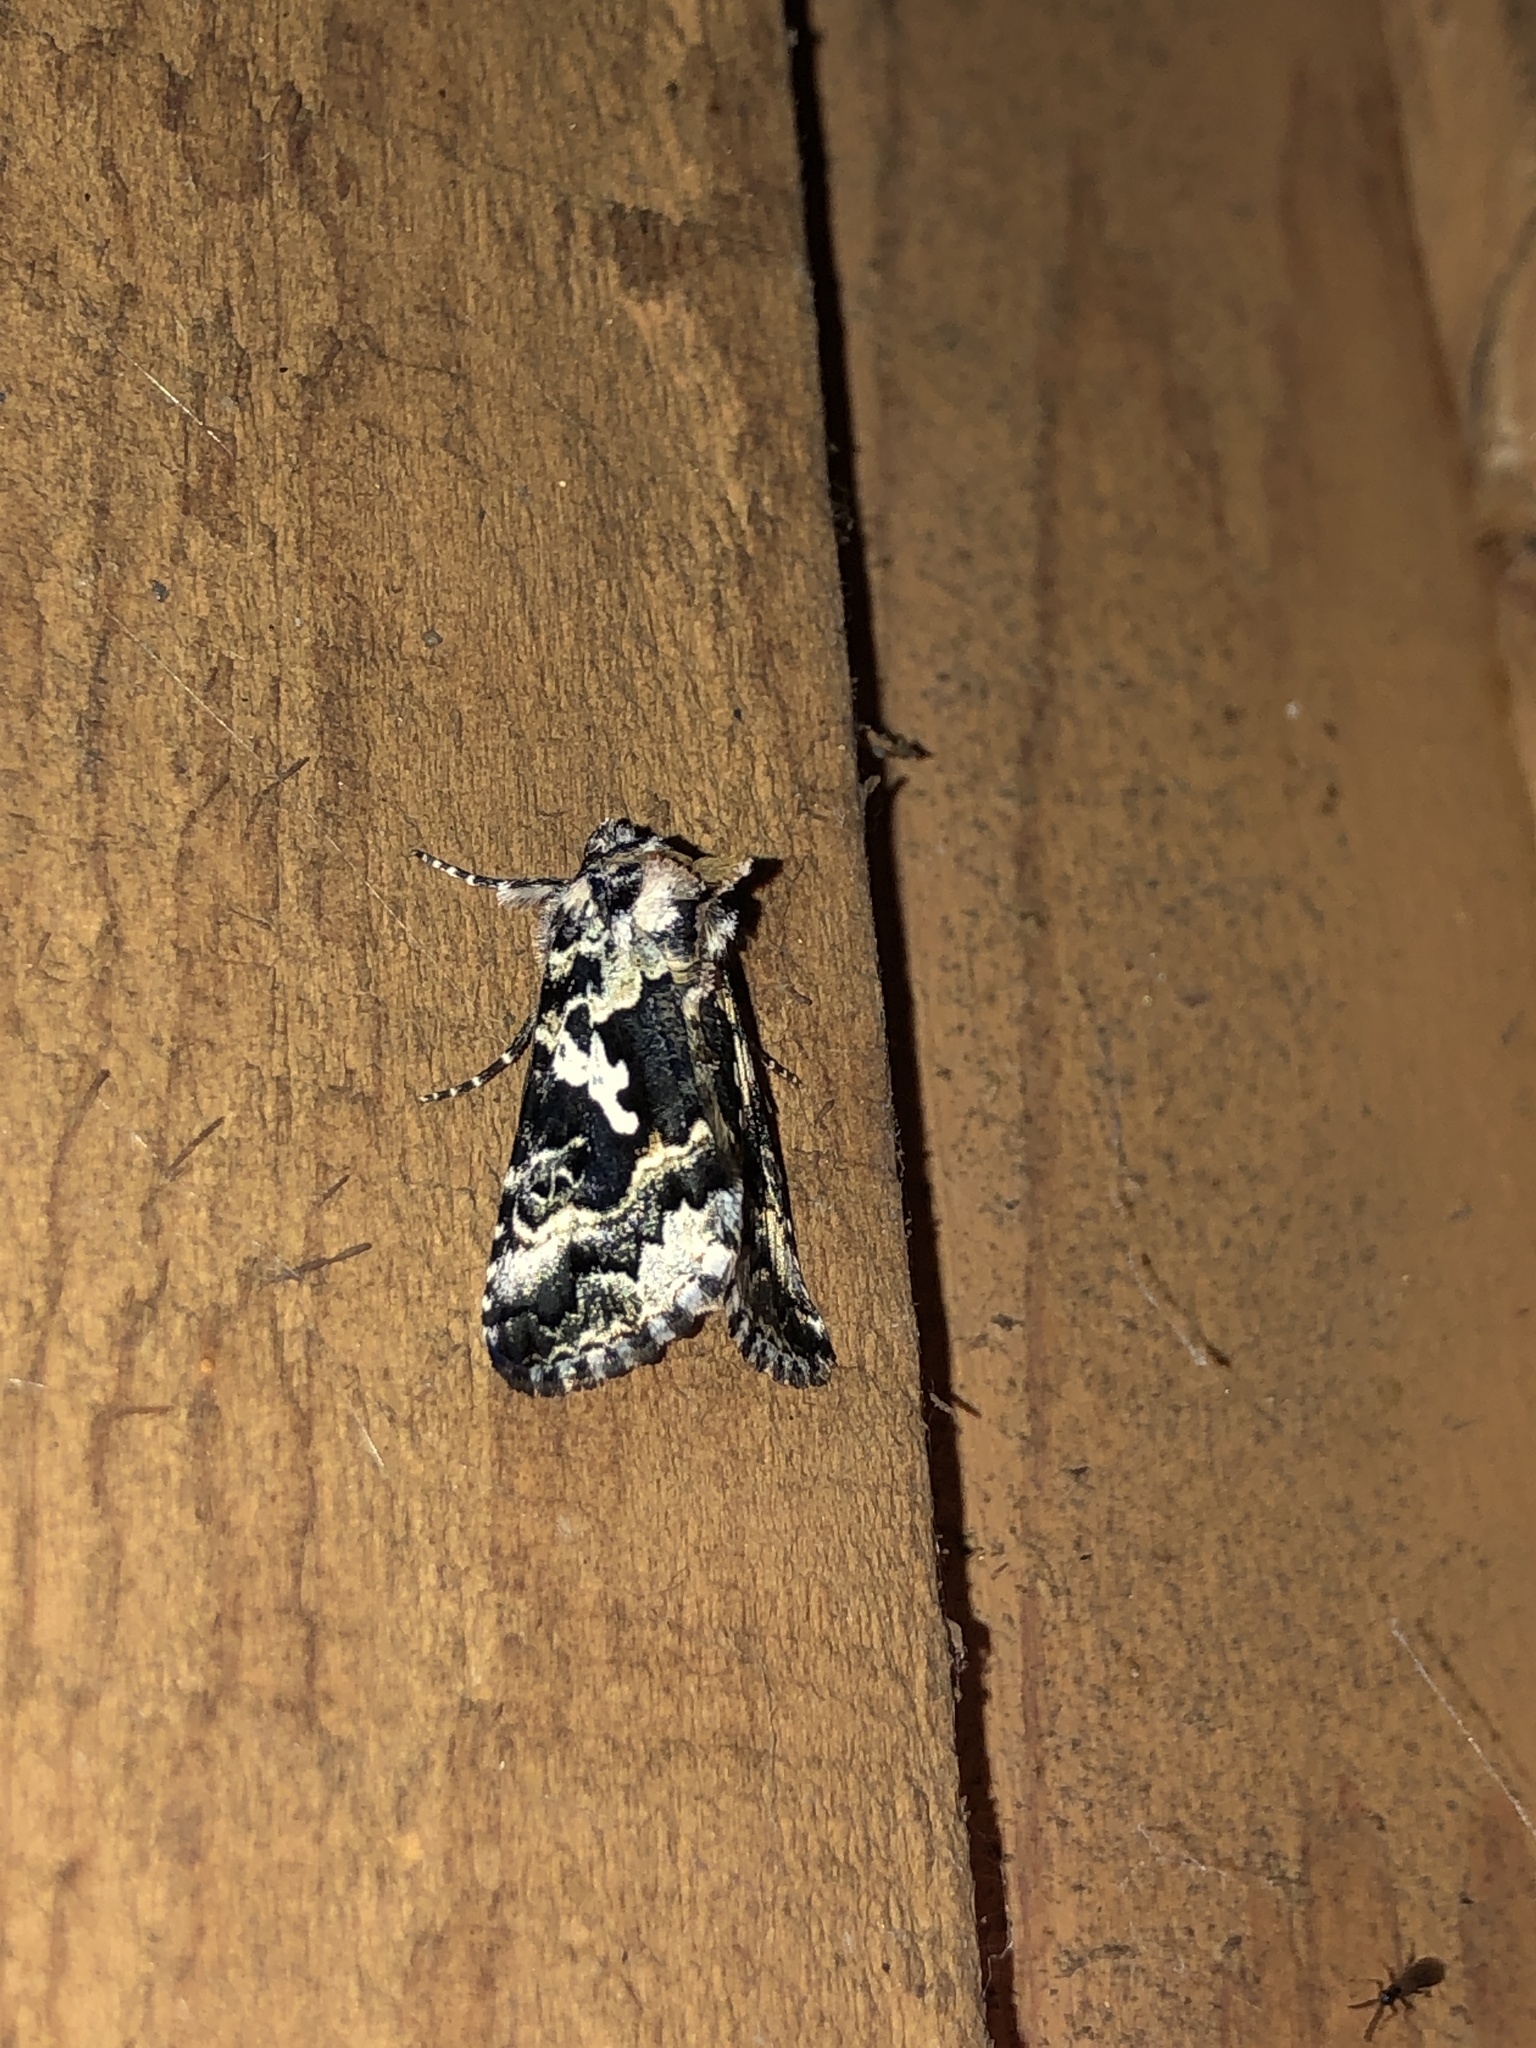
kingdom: Animalia
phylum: Arthropoda
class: Insecta
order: Lepidoptera
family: Noctuidae
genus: Syngrapha
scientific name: Syngrapha rectangula
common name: Angulated cutworm
